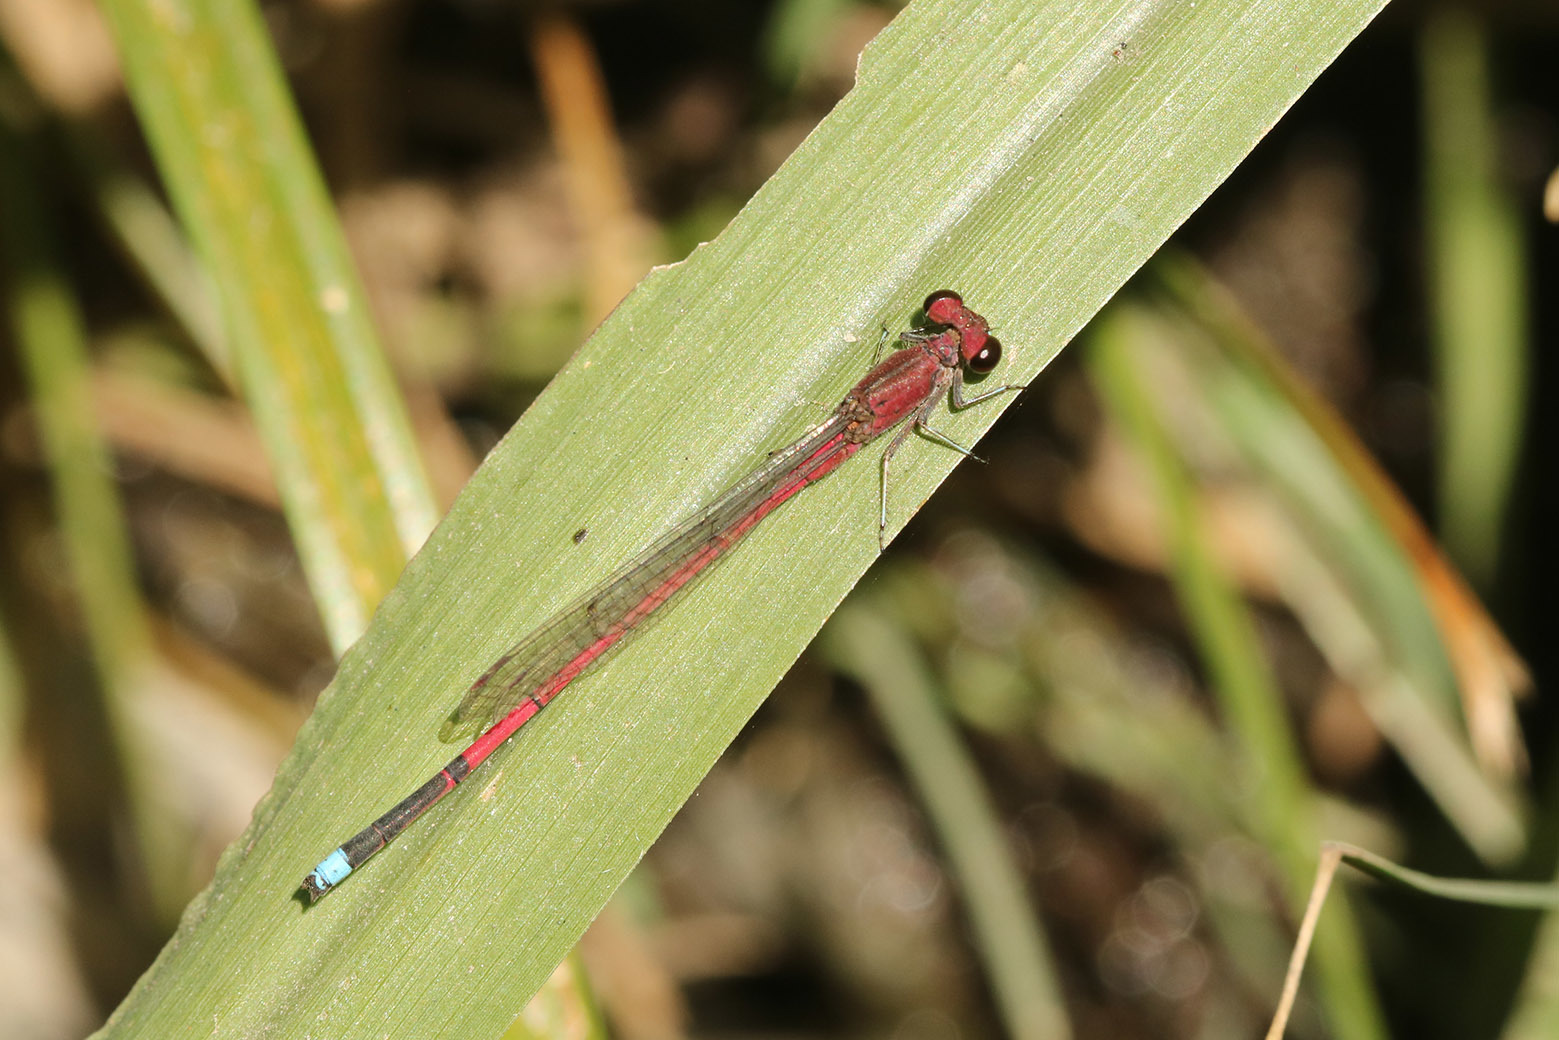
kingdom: Animalia
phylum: Arthropoda
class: Insecta
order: Odonata
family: Coenagrionidae
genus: Oxyagrion
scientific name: Oxyagrion terminale
